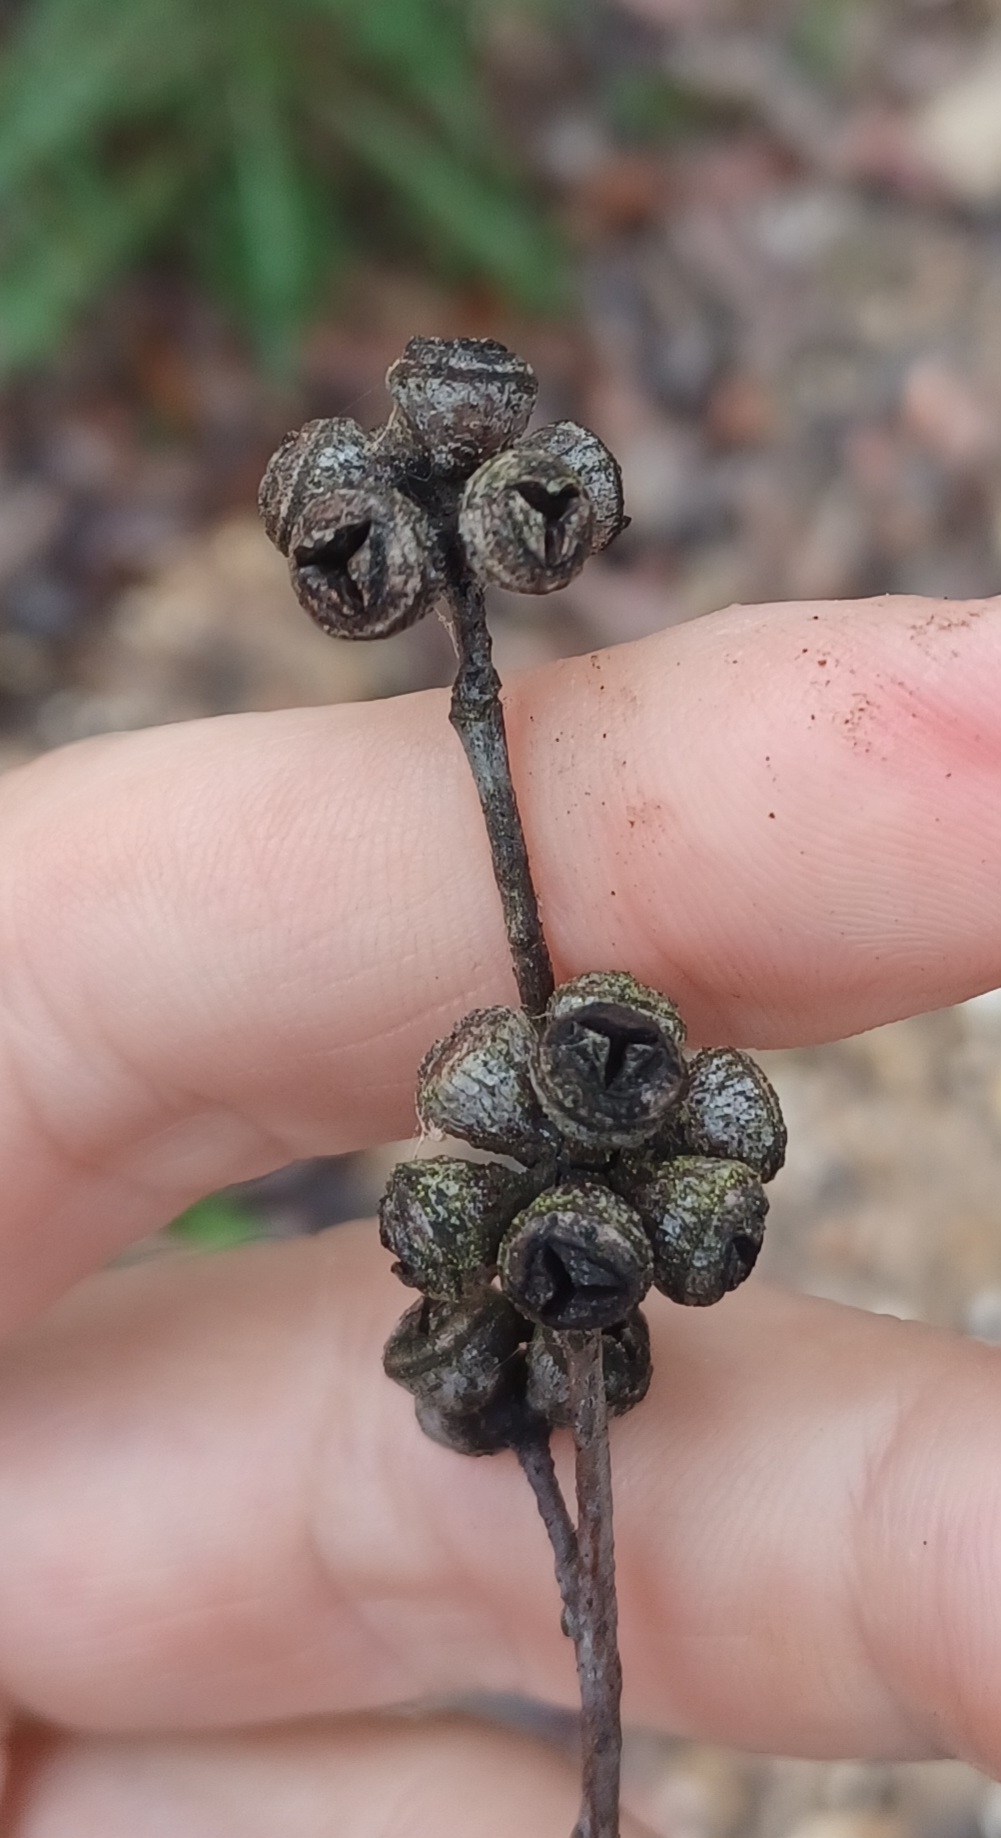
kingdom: Plantae
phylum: Tracheophyta
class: Magnoliopsida
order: Myrtales
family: Myrtaceae
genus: Eucalyptus
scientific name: Eucalyptus aromaphloia
